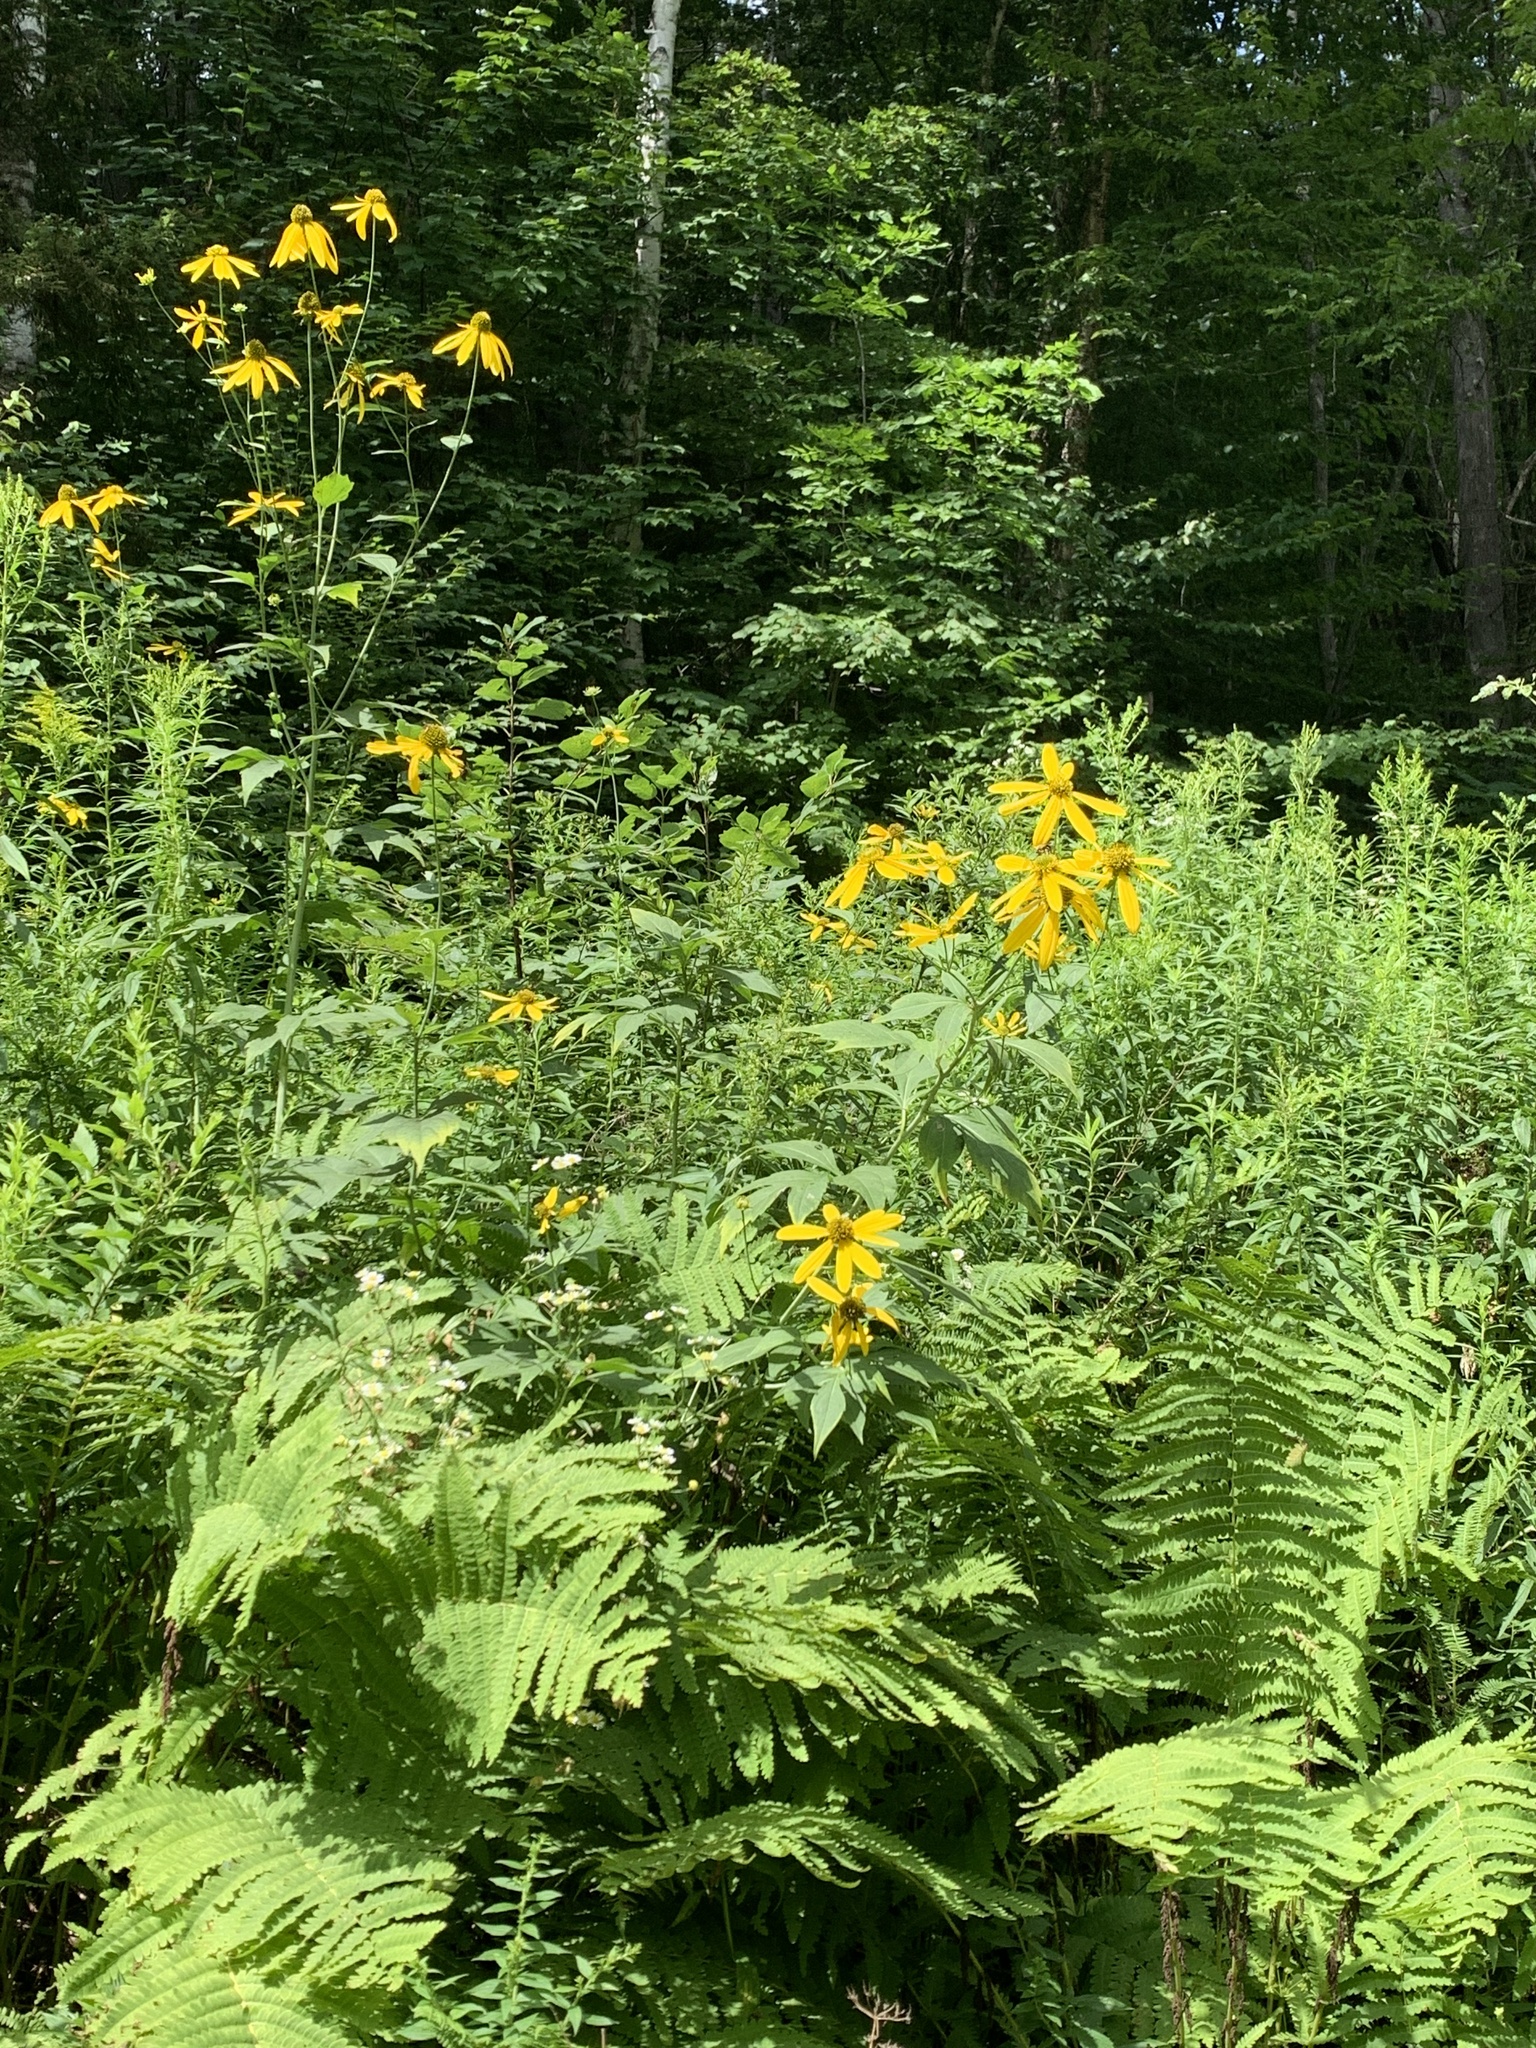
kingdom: Plantae
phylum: Tracheophyta
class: Magnoliopsida
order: Asterales
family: Asteraceae
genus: Rudbeckia
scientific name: Rudbeckia laciniata
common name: Coneflower
